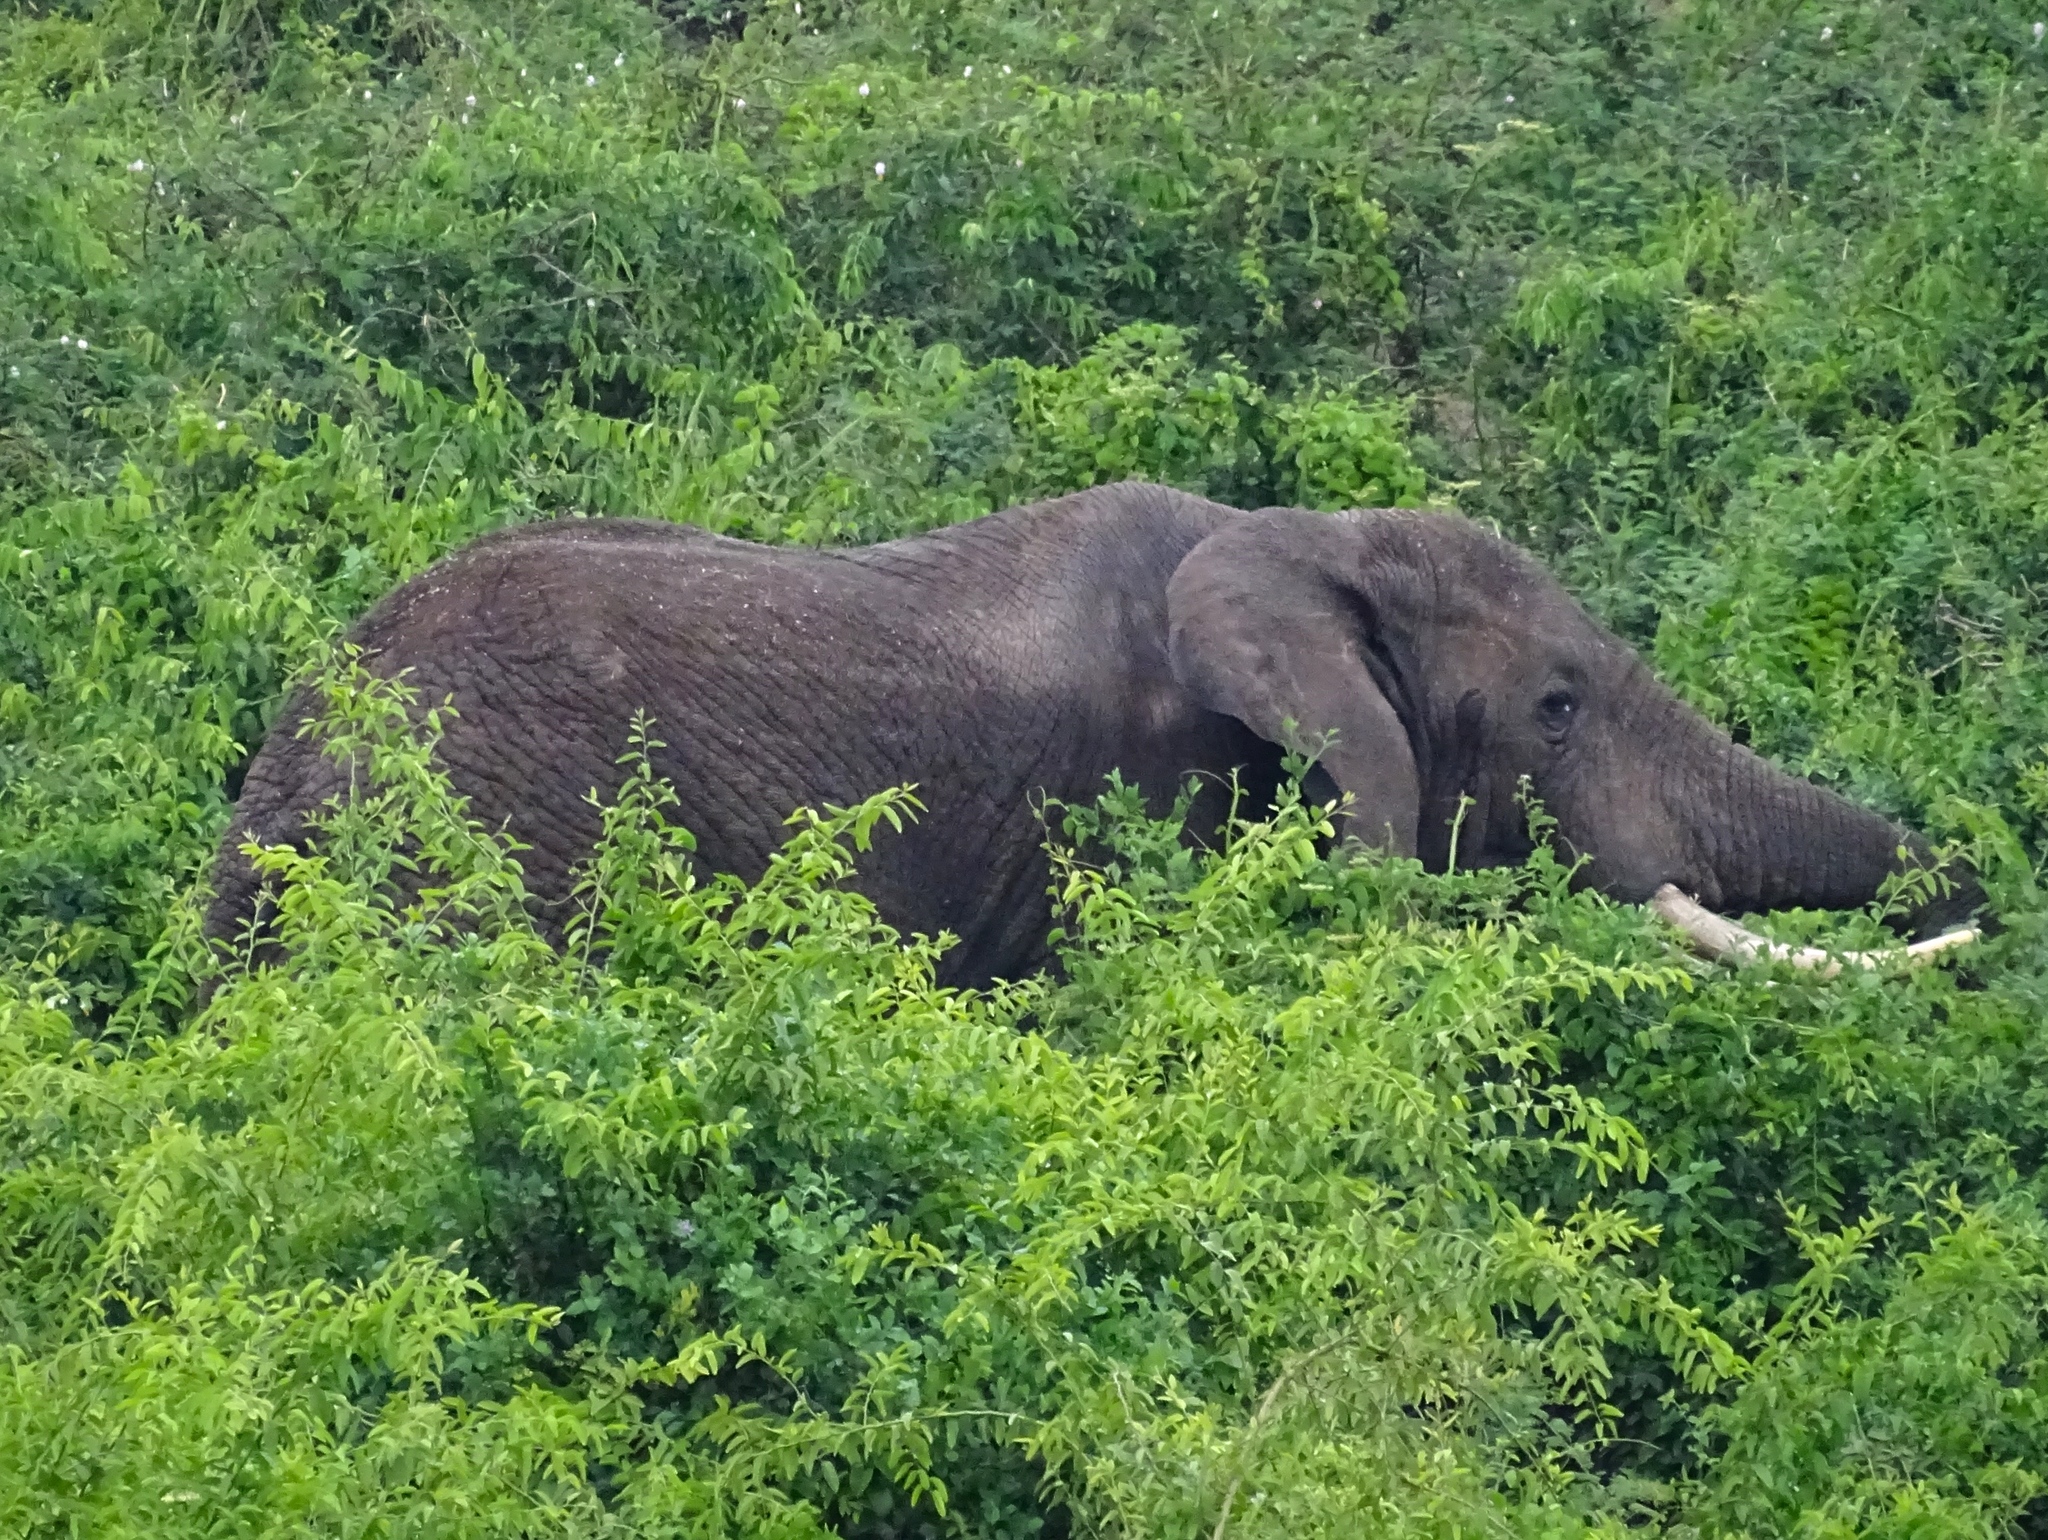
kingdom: Animalia
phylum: Chordata
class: Mammalia
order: Proboscidea
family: Elephantidae
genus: Loxodonta
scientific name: Loxodonta africana
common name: African elephant
